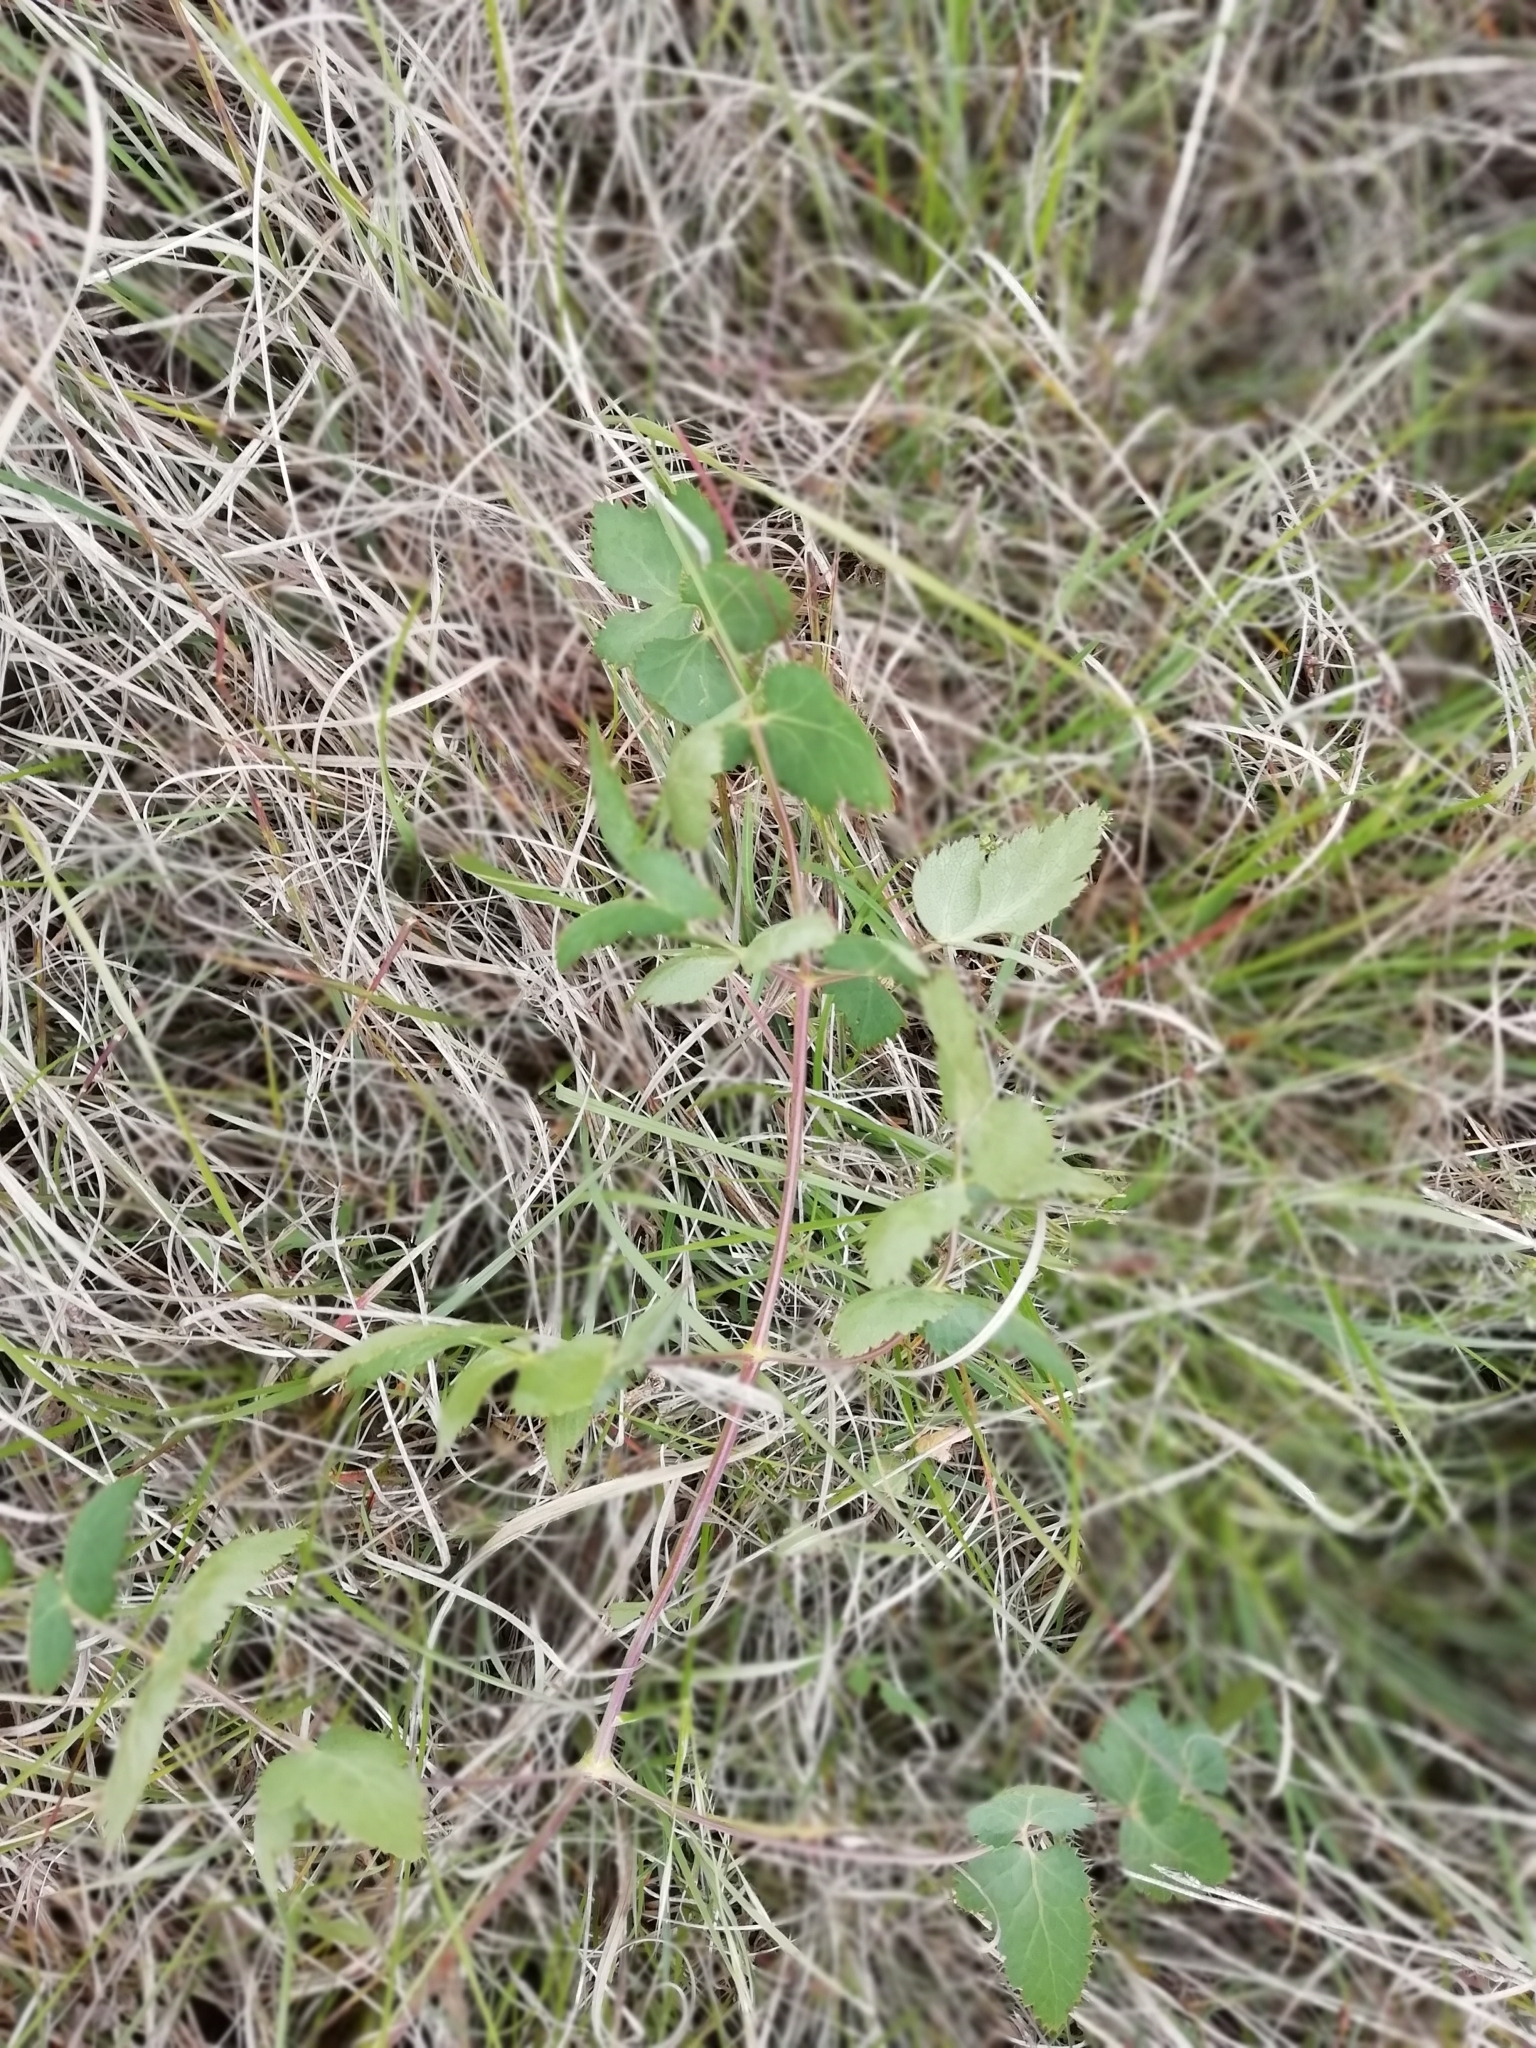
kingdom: Plantae
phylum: Tracheophyta
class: Magnoliopsida
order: Apiales
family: Apiaceae
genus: Cervaria
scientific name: Cervaria rivini
